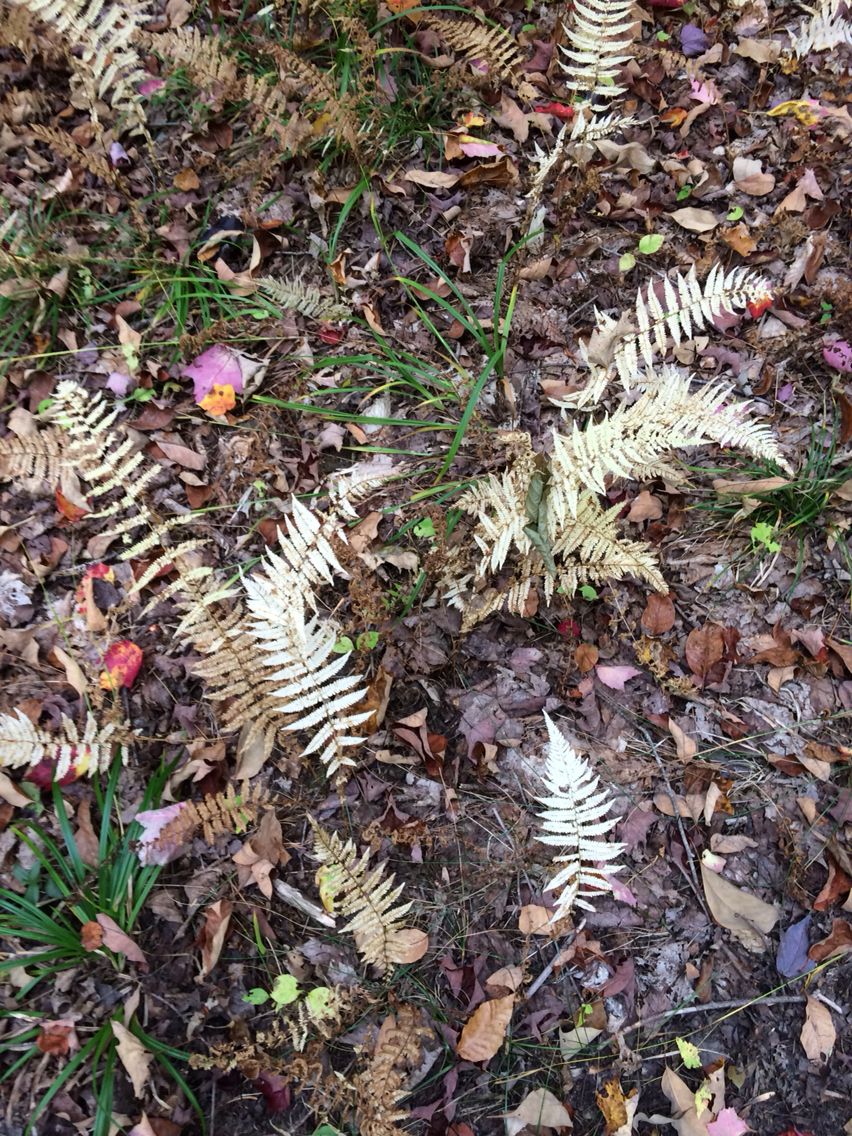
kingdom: Plantae
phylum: Tracheophyta
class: Polypodiopsida
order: Polypodiales
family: Thelypteridaceae
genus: Amauropelta
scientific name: Amauropelta noveboracensis
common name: New york fern
